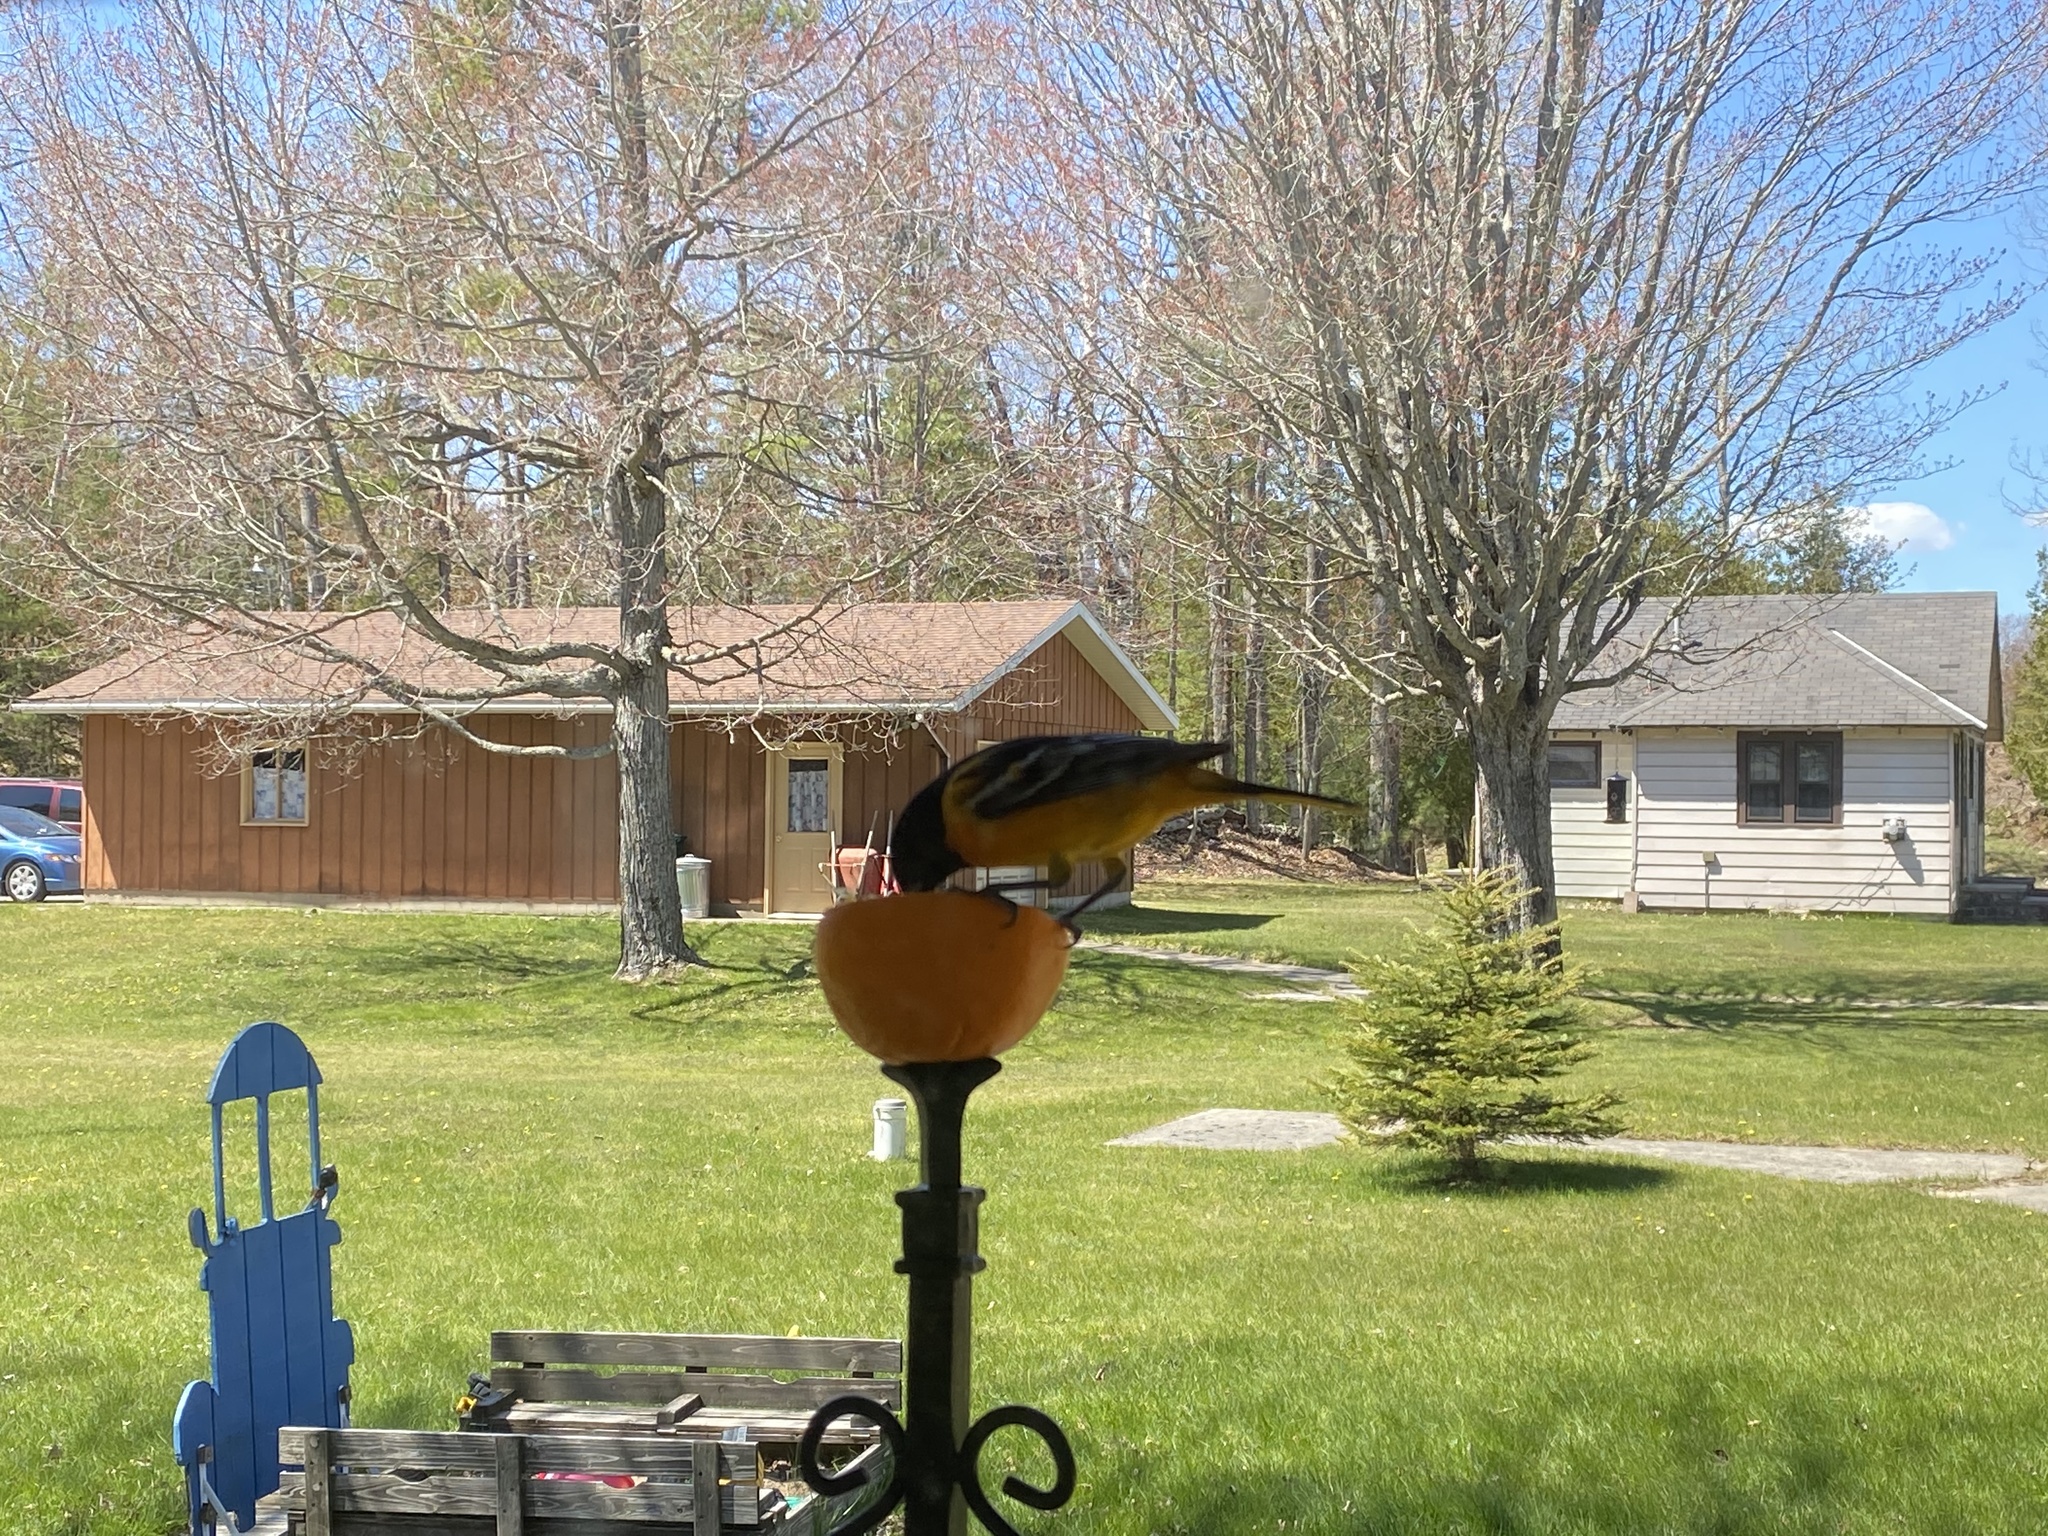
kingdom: Animalia
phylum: Chordata
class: Aves
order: Passeriformes
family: Icteridae
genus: Icterus
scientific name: Icterus galbula
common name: Baltimore oriole
